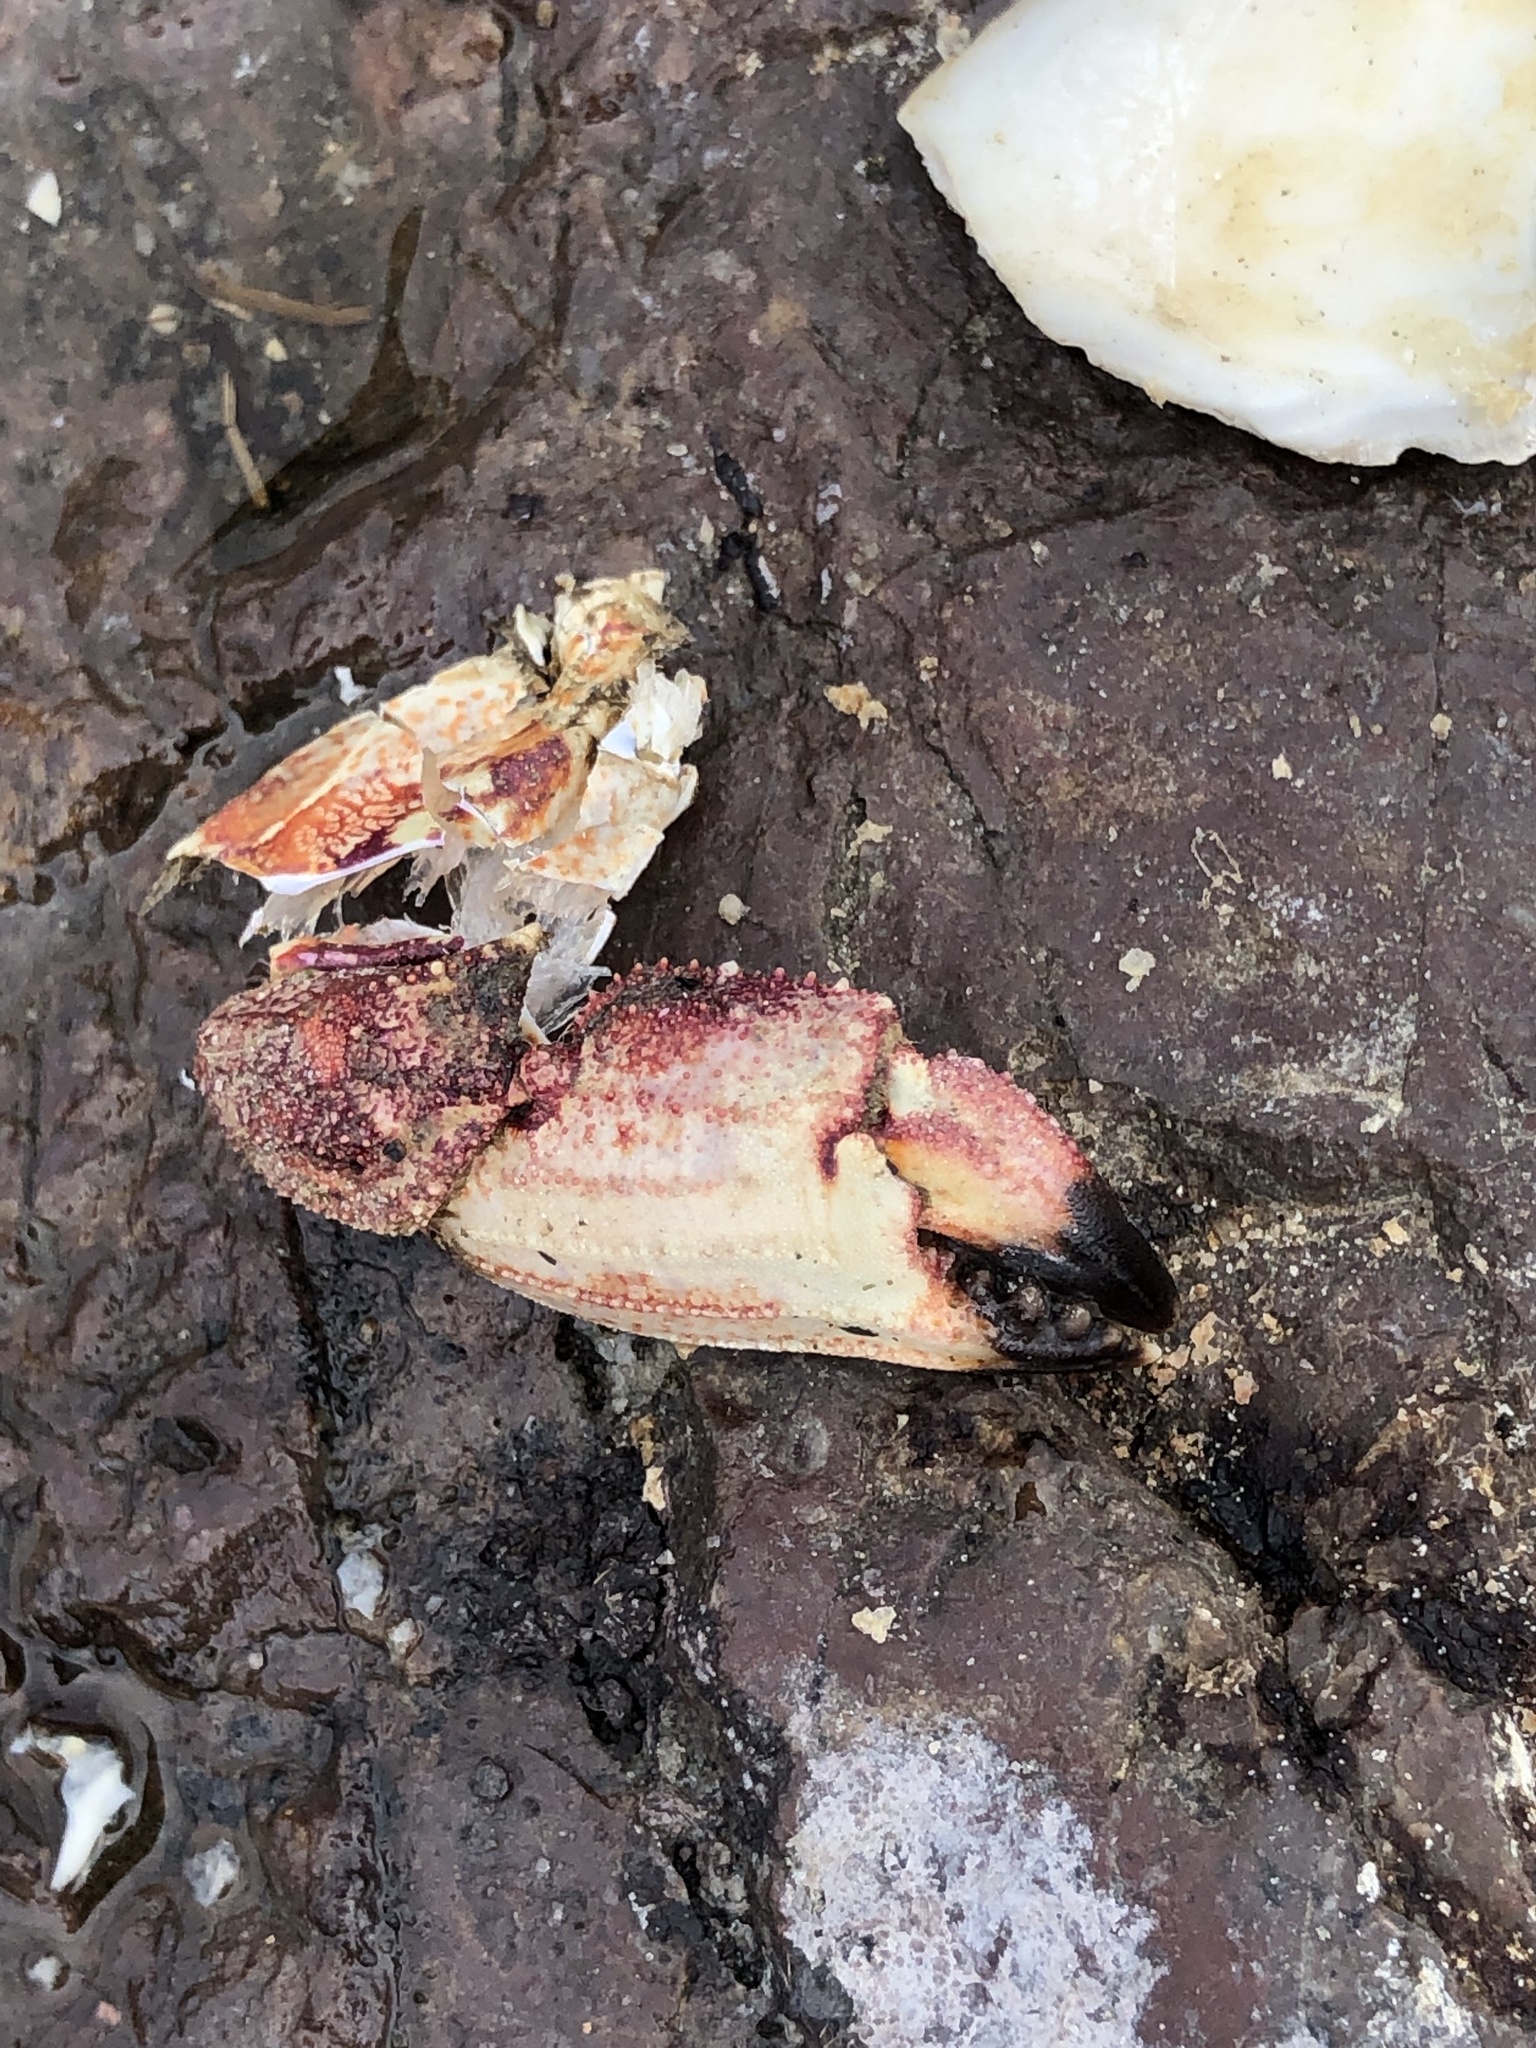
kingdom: Animalia
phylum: Arthropoda
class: Malacostraca
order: Decapoda
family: Cancridae
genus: Cancer
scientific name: Cancer irroratus
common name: Atlantic rock crab
